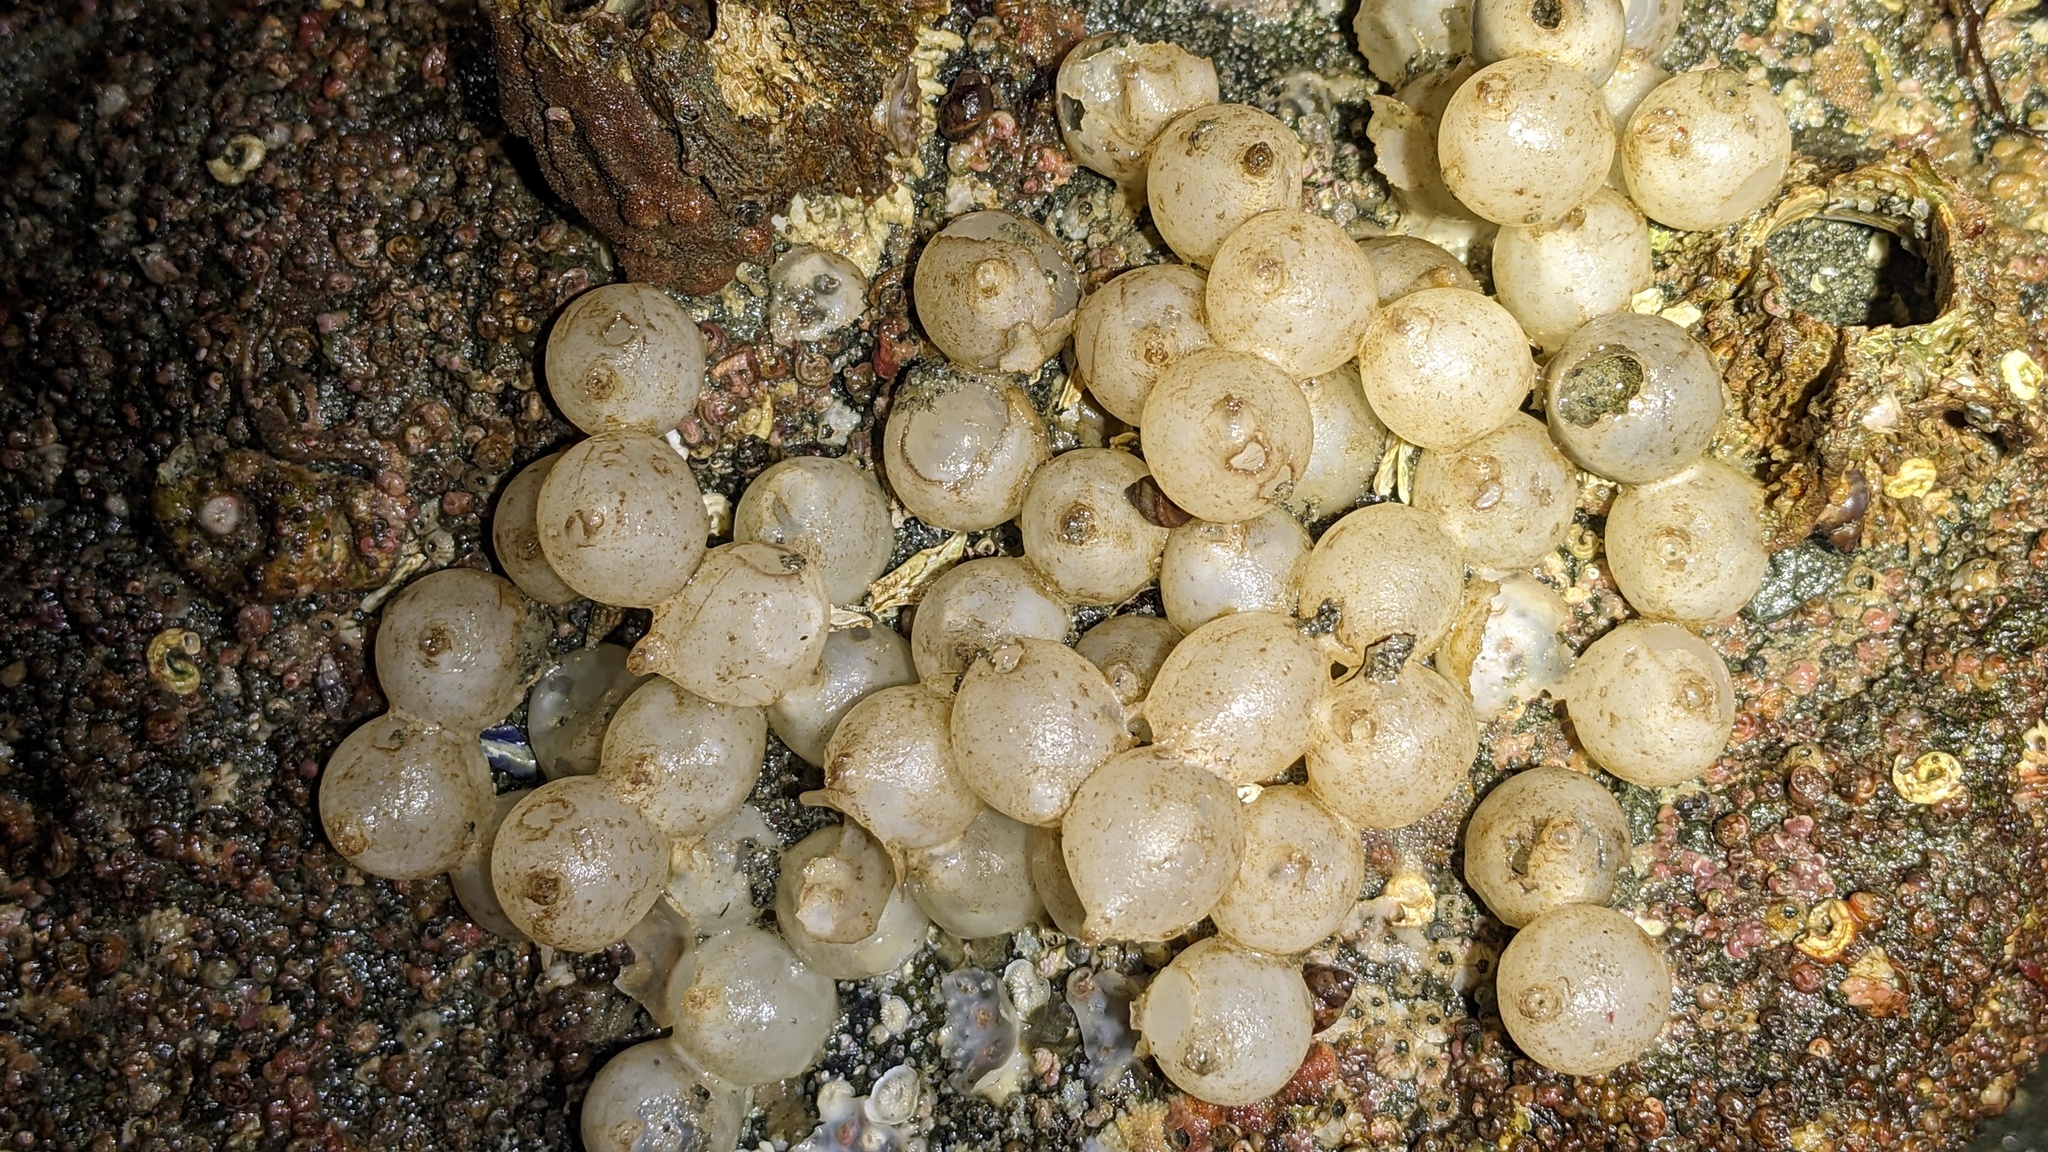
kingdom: Animalia
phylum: Mollusca
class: Cephalopoda
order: Sepiida
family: Sepiolidae
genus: Rossia
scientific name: Rossia pacifica
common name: North pacific bobtail squid
